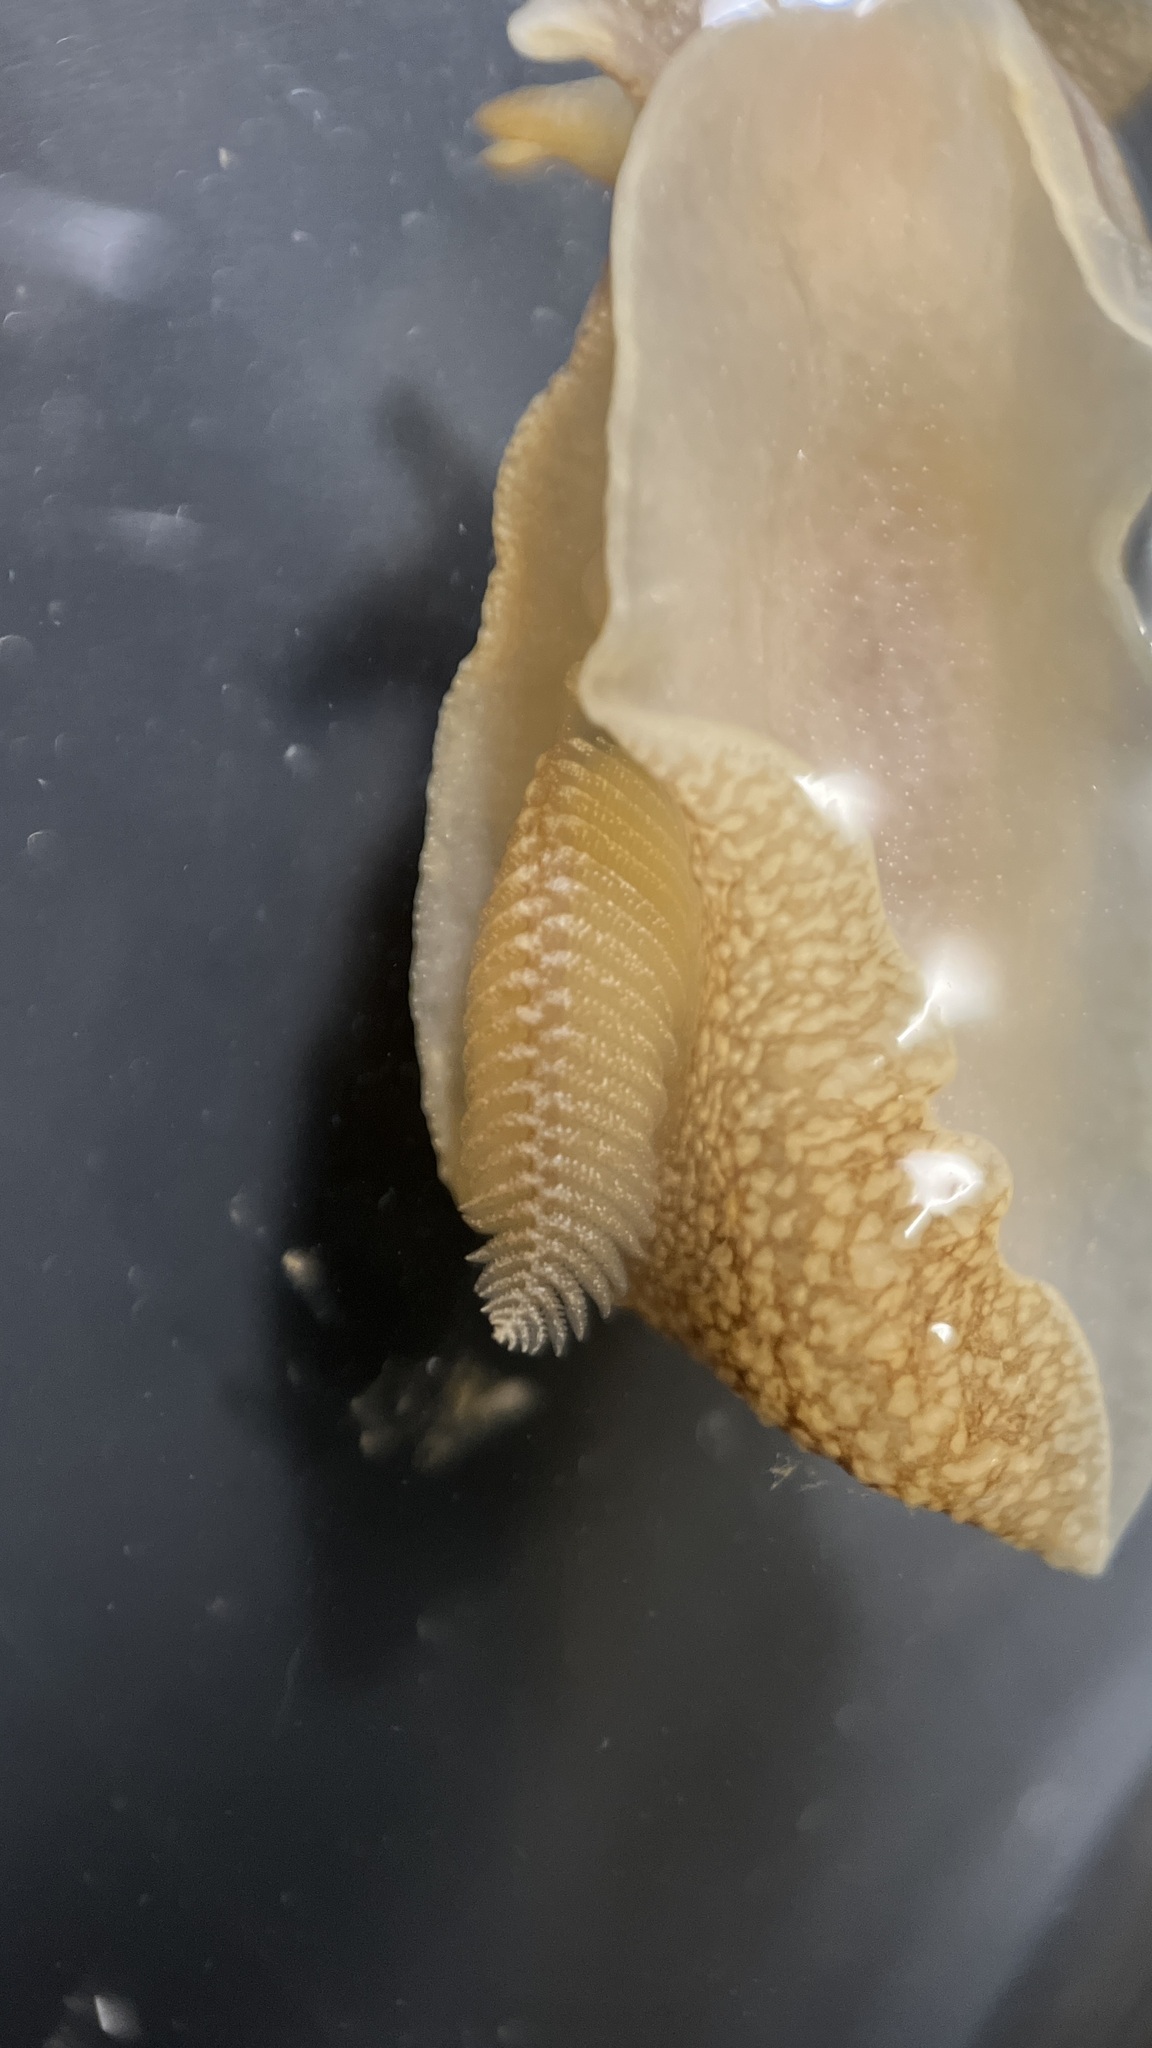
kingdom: Animalia
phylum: Mollusca
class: Gastropoda
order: Pleurobranchida
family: Pleurobranchaeidae
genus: Pleurobranchaea
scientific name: Pleurobranchaea maculata
